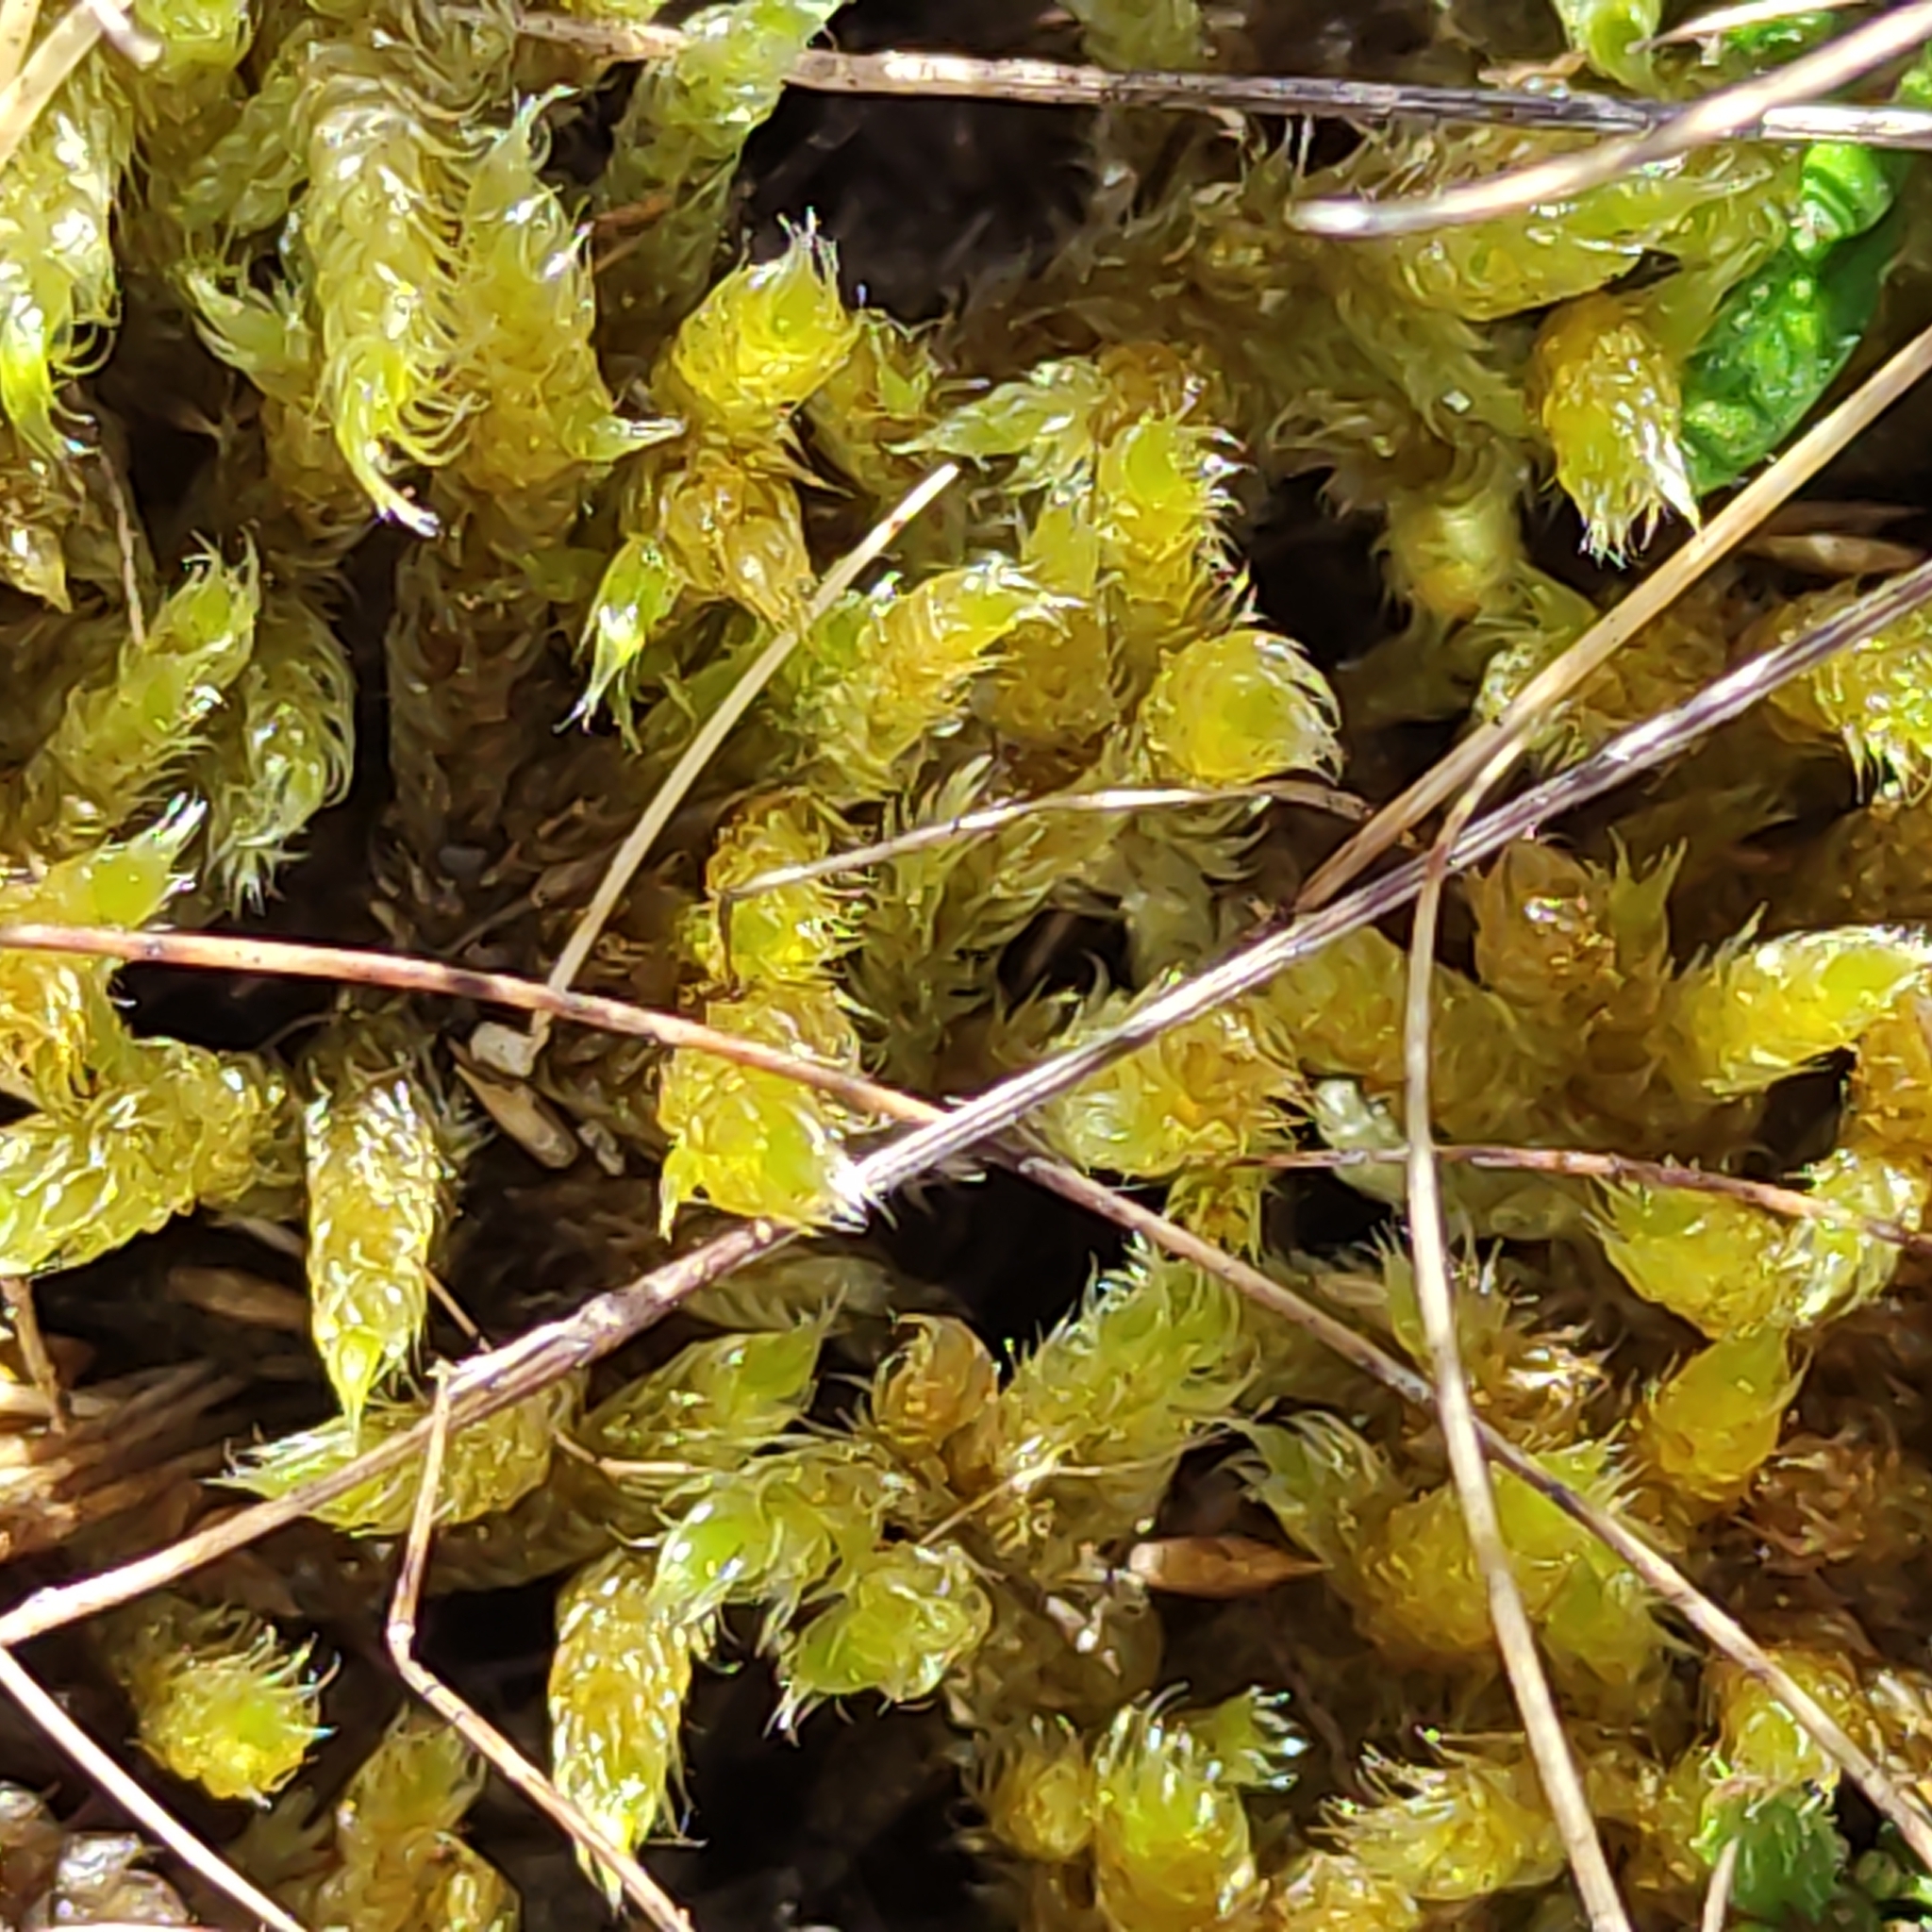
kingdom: Plantae
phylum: Bryophyta
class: Bryopsida
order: Hypnales
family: Hypnaceae
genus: Hypnum
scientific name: Hypnum cupressiforme
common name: Cypress-leaved plait-moss
